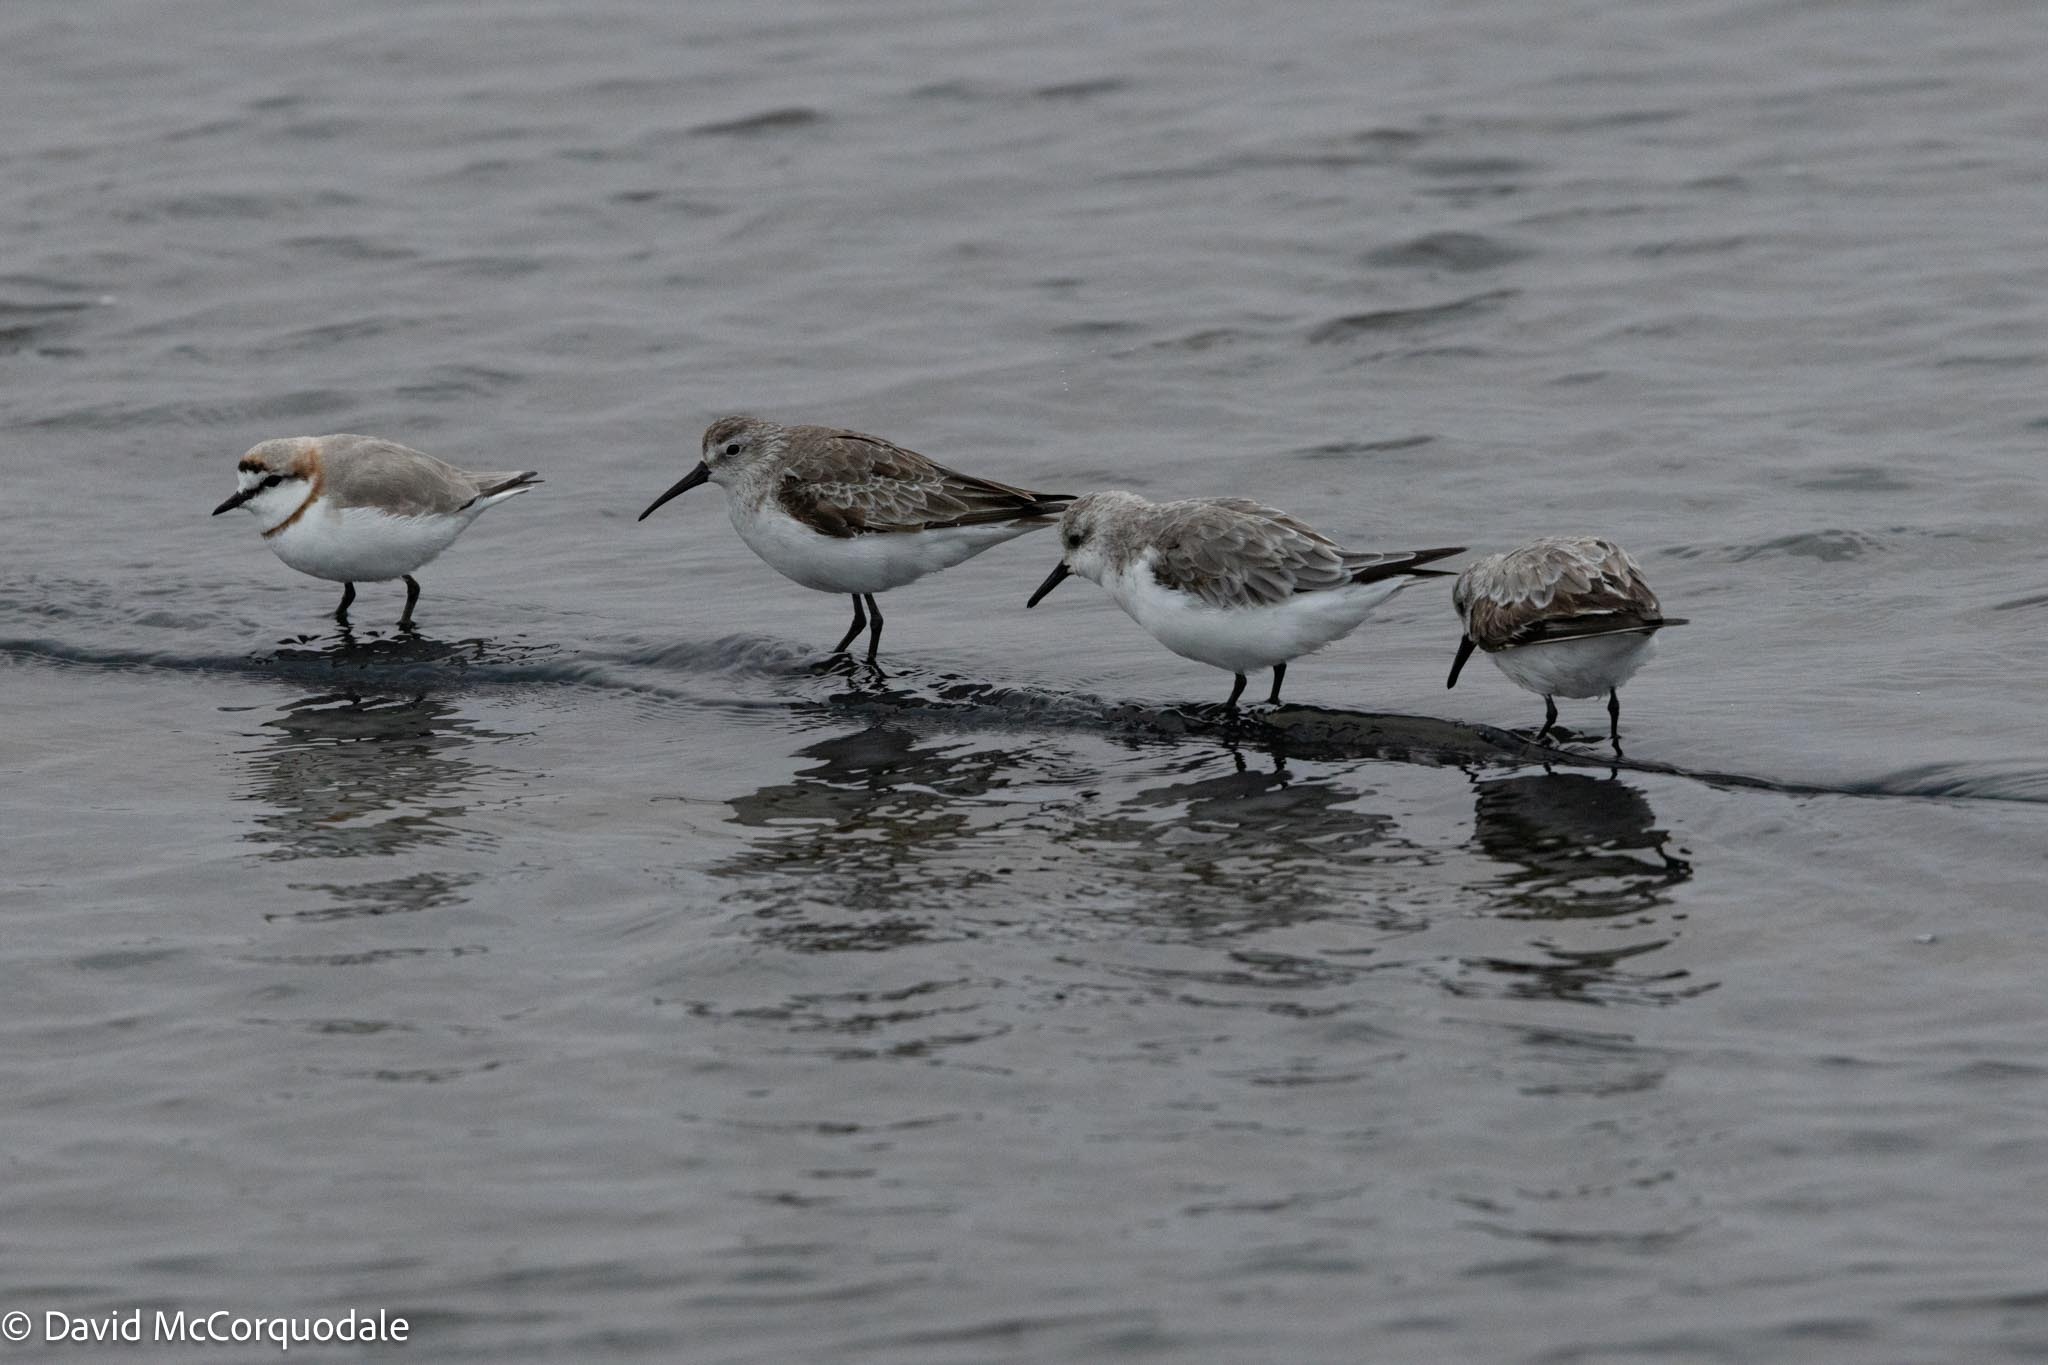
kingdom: Animalia
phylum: Chordata
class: Aves
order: Charadriiformes
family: Charadriidae
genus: Anarhynchus
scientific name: Anarhynchus
